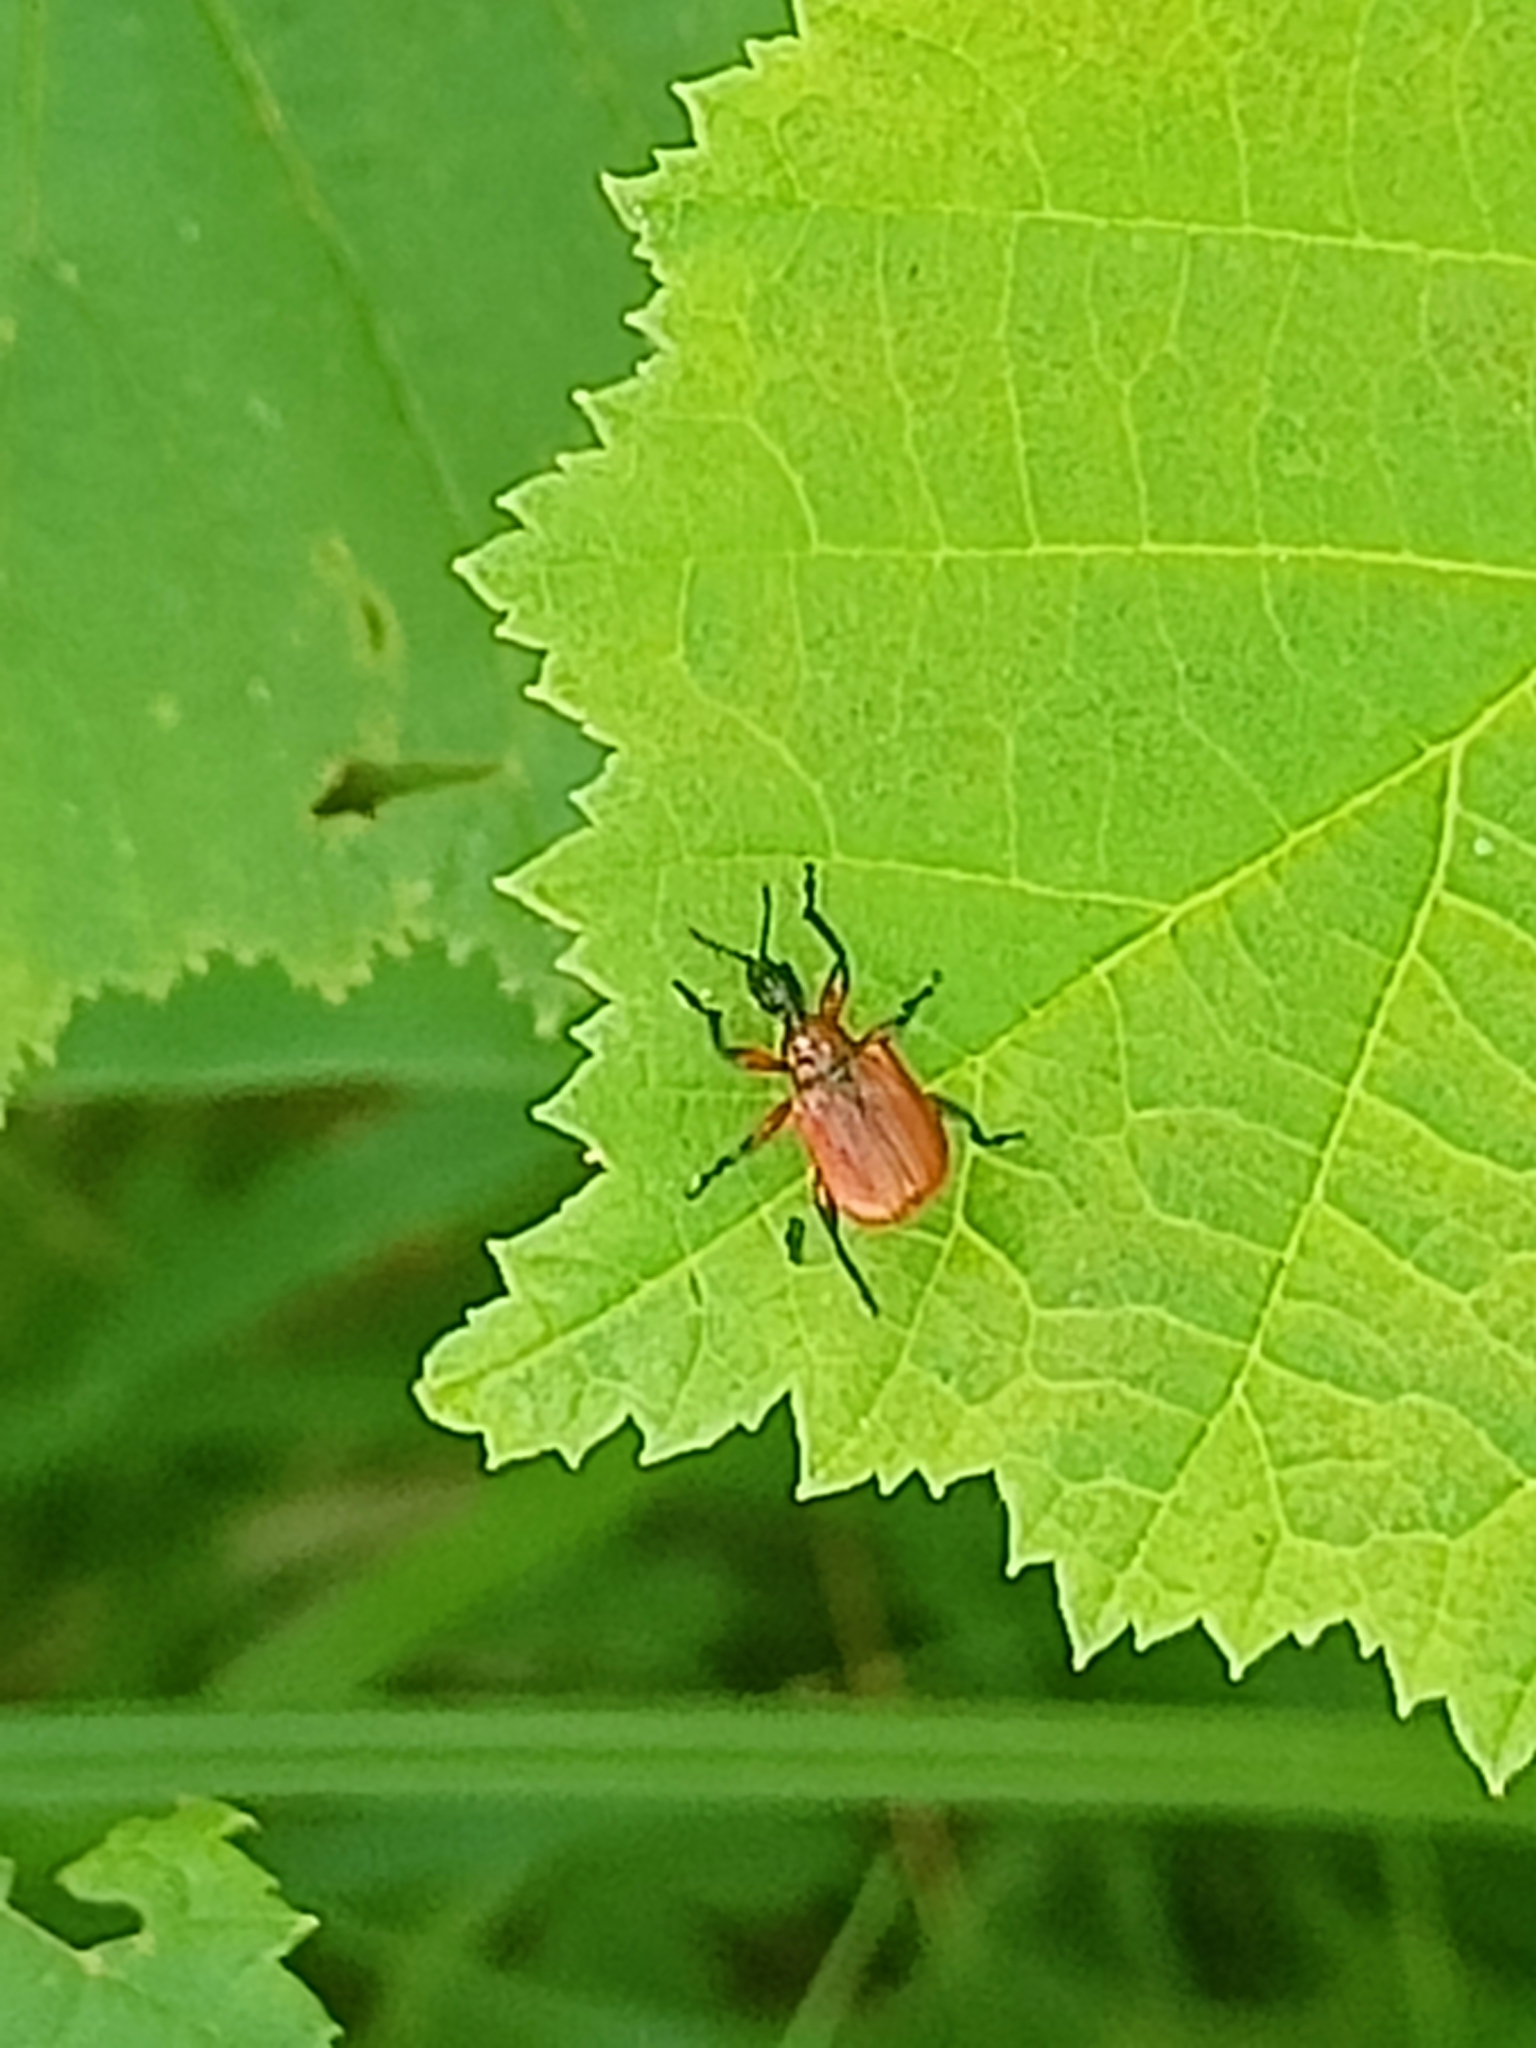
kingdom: Animalia
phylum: Arthropoda
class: Insecta
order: Coleoptera
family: Attelabidae
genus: Apoderus
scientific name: Apoderus coryli
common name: Hazel leaf roller
